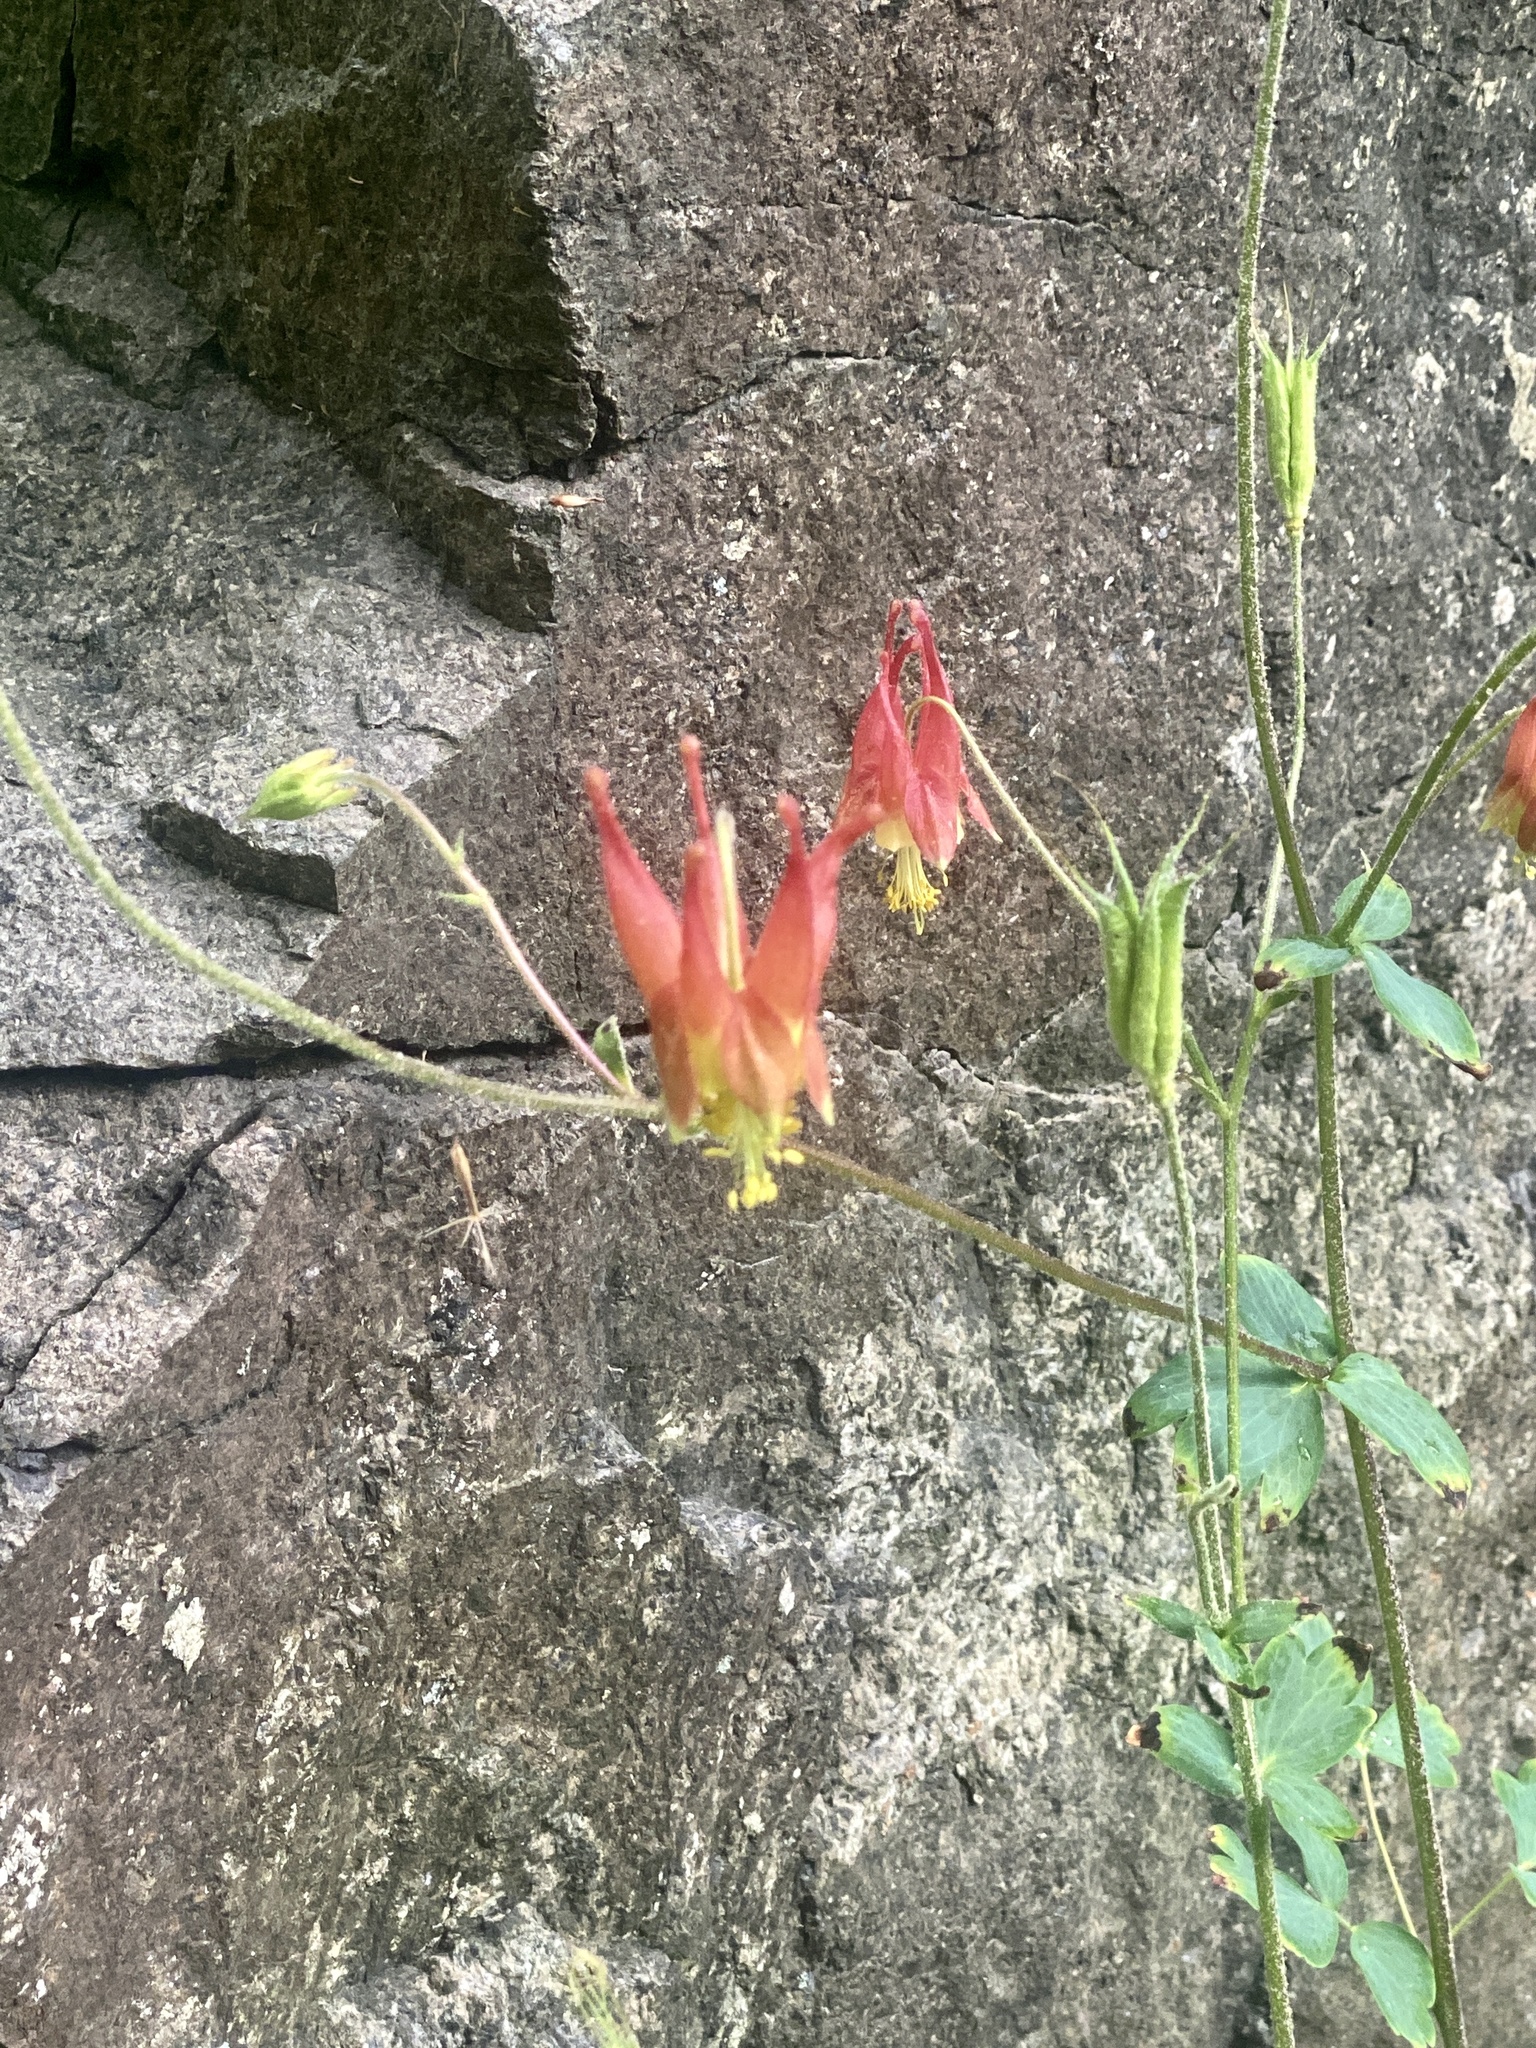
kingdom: Plantae
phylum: Tracheophyta
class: Magnoliopsida
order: Ranunculales
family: Ranunculaceae
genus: Aquilegia
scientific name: Aquilegia canadensis
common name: American columbine
